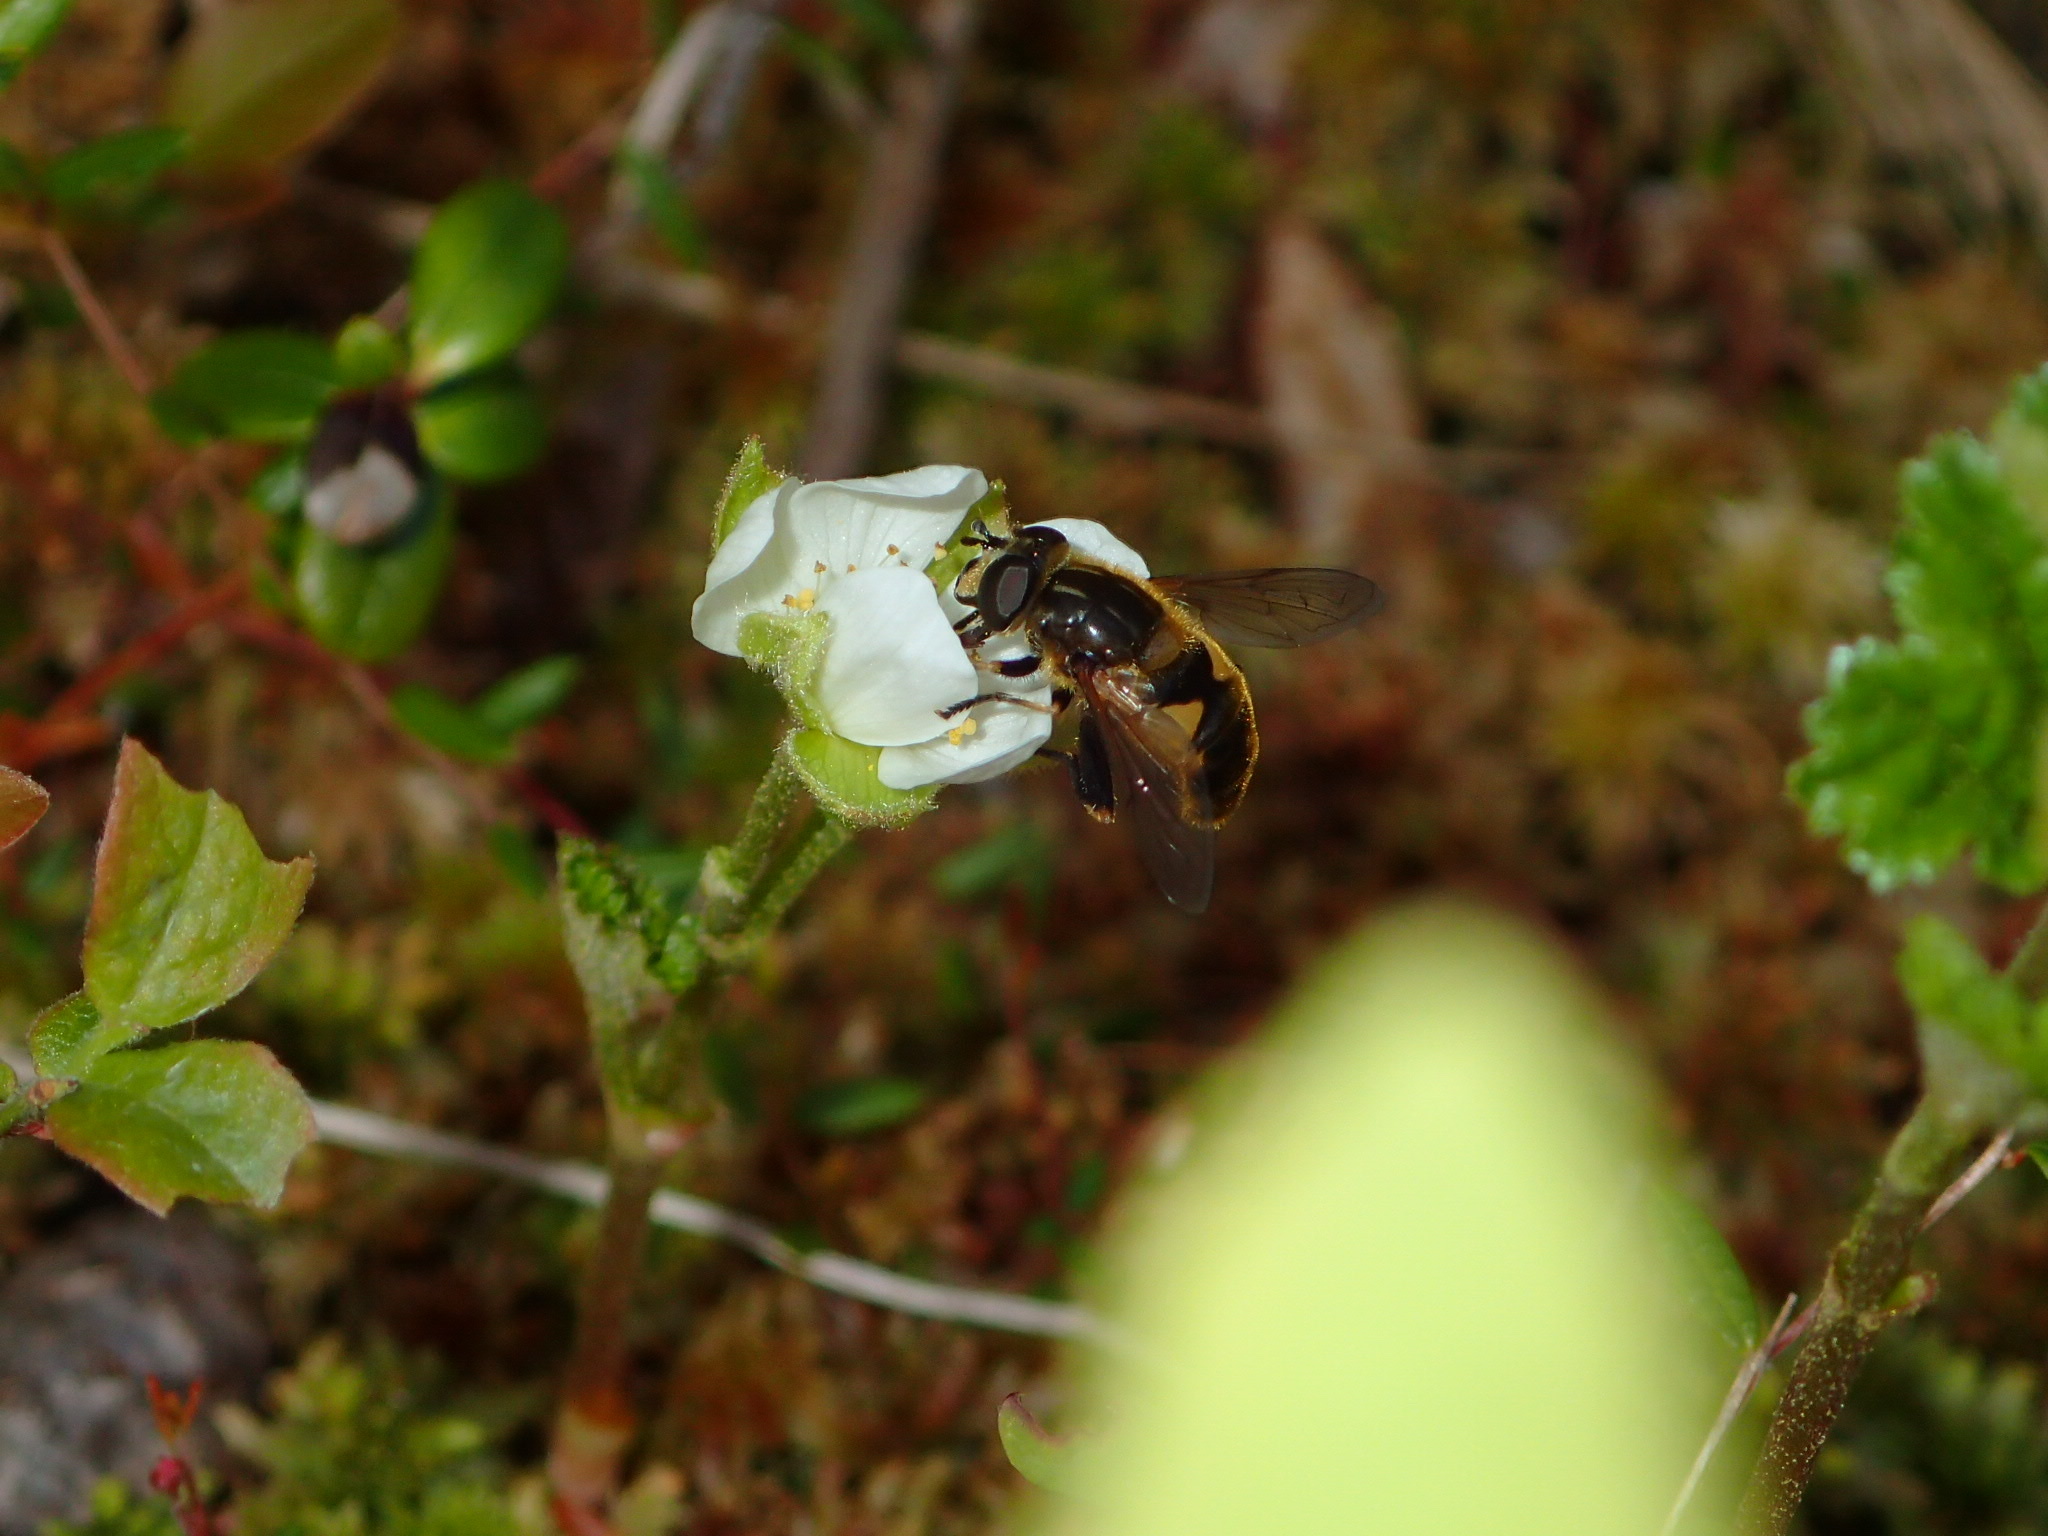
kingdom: Animalia
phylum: Arthropoda
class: Insecta
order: Diptera
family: Syrphidae
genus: Helophilus
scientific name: Helophilus lapponicus
